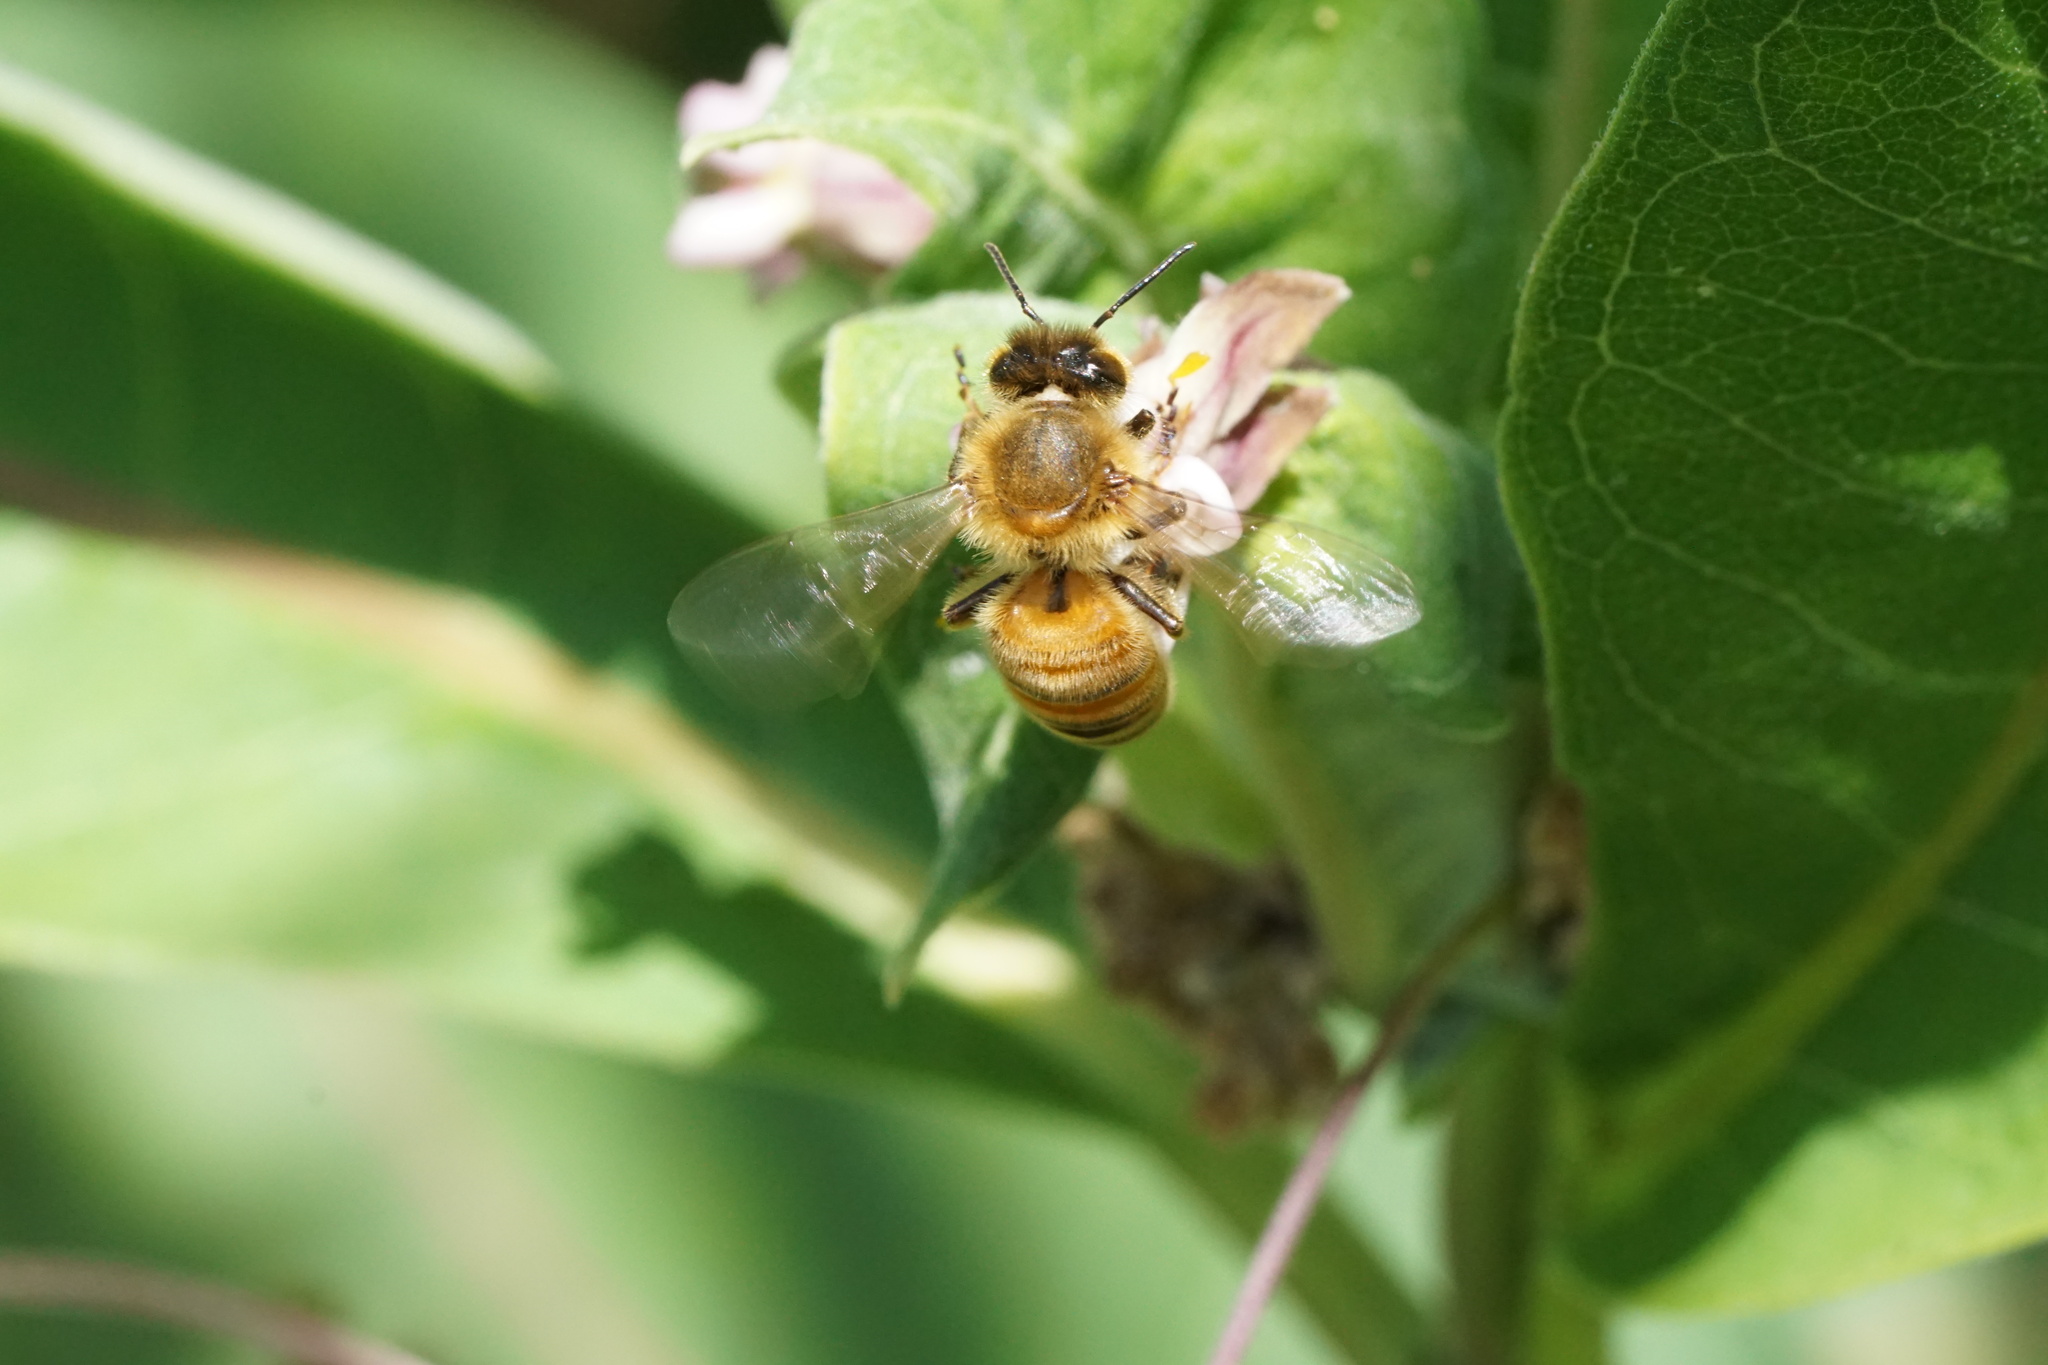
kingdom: Animalia
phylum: Arthropoda
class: Insecta
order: Hymenoptera
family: Apidae
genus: Apis
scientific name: Apis mellifera
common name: Honey bee
